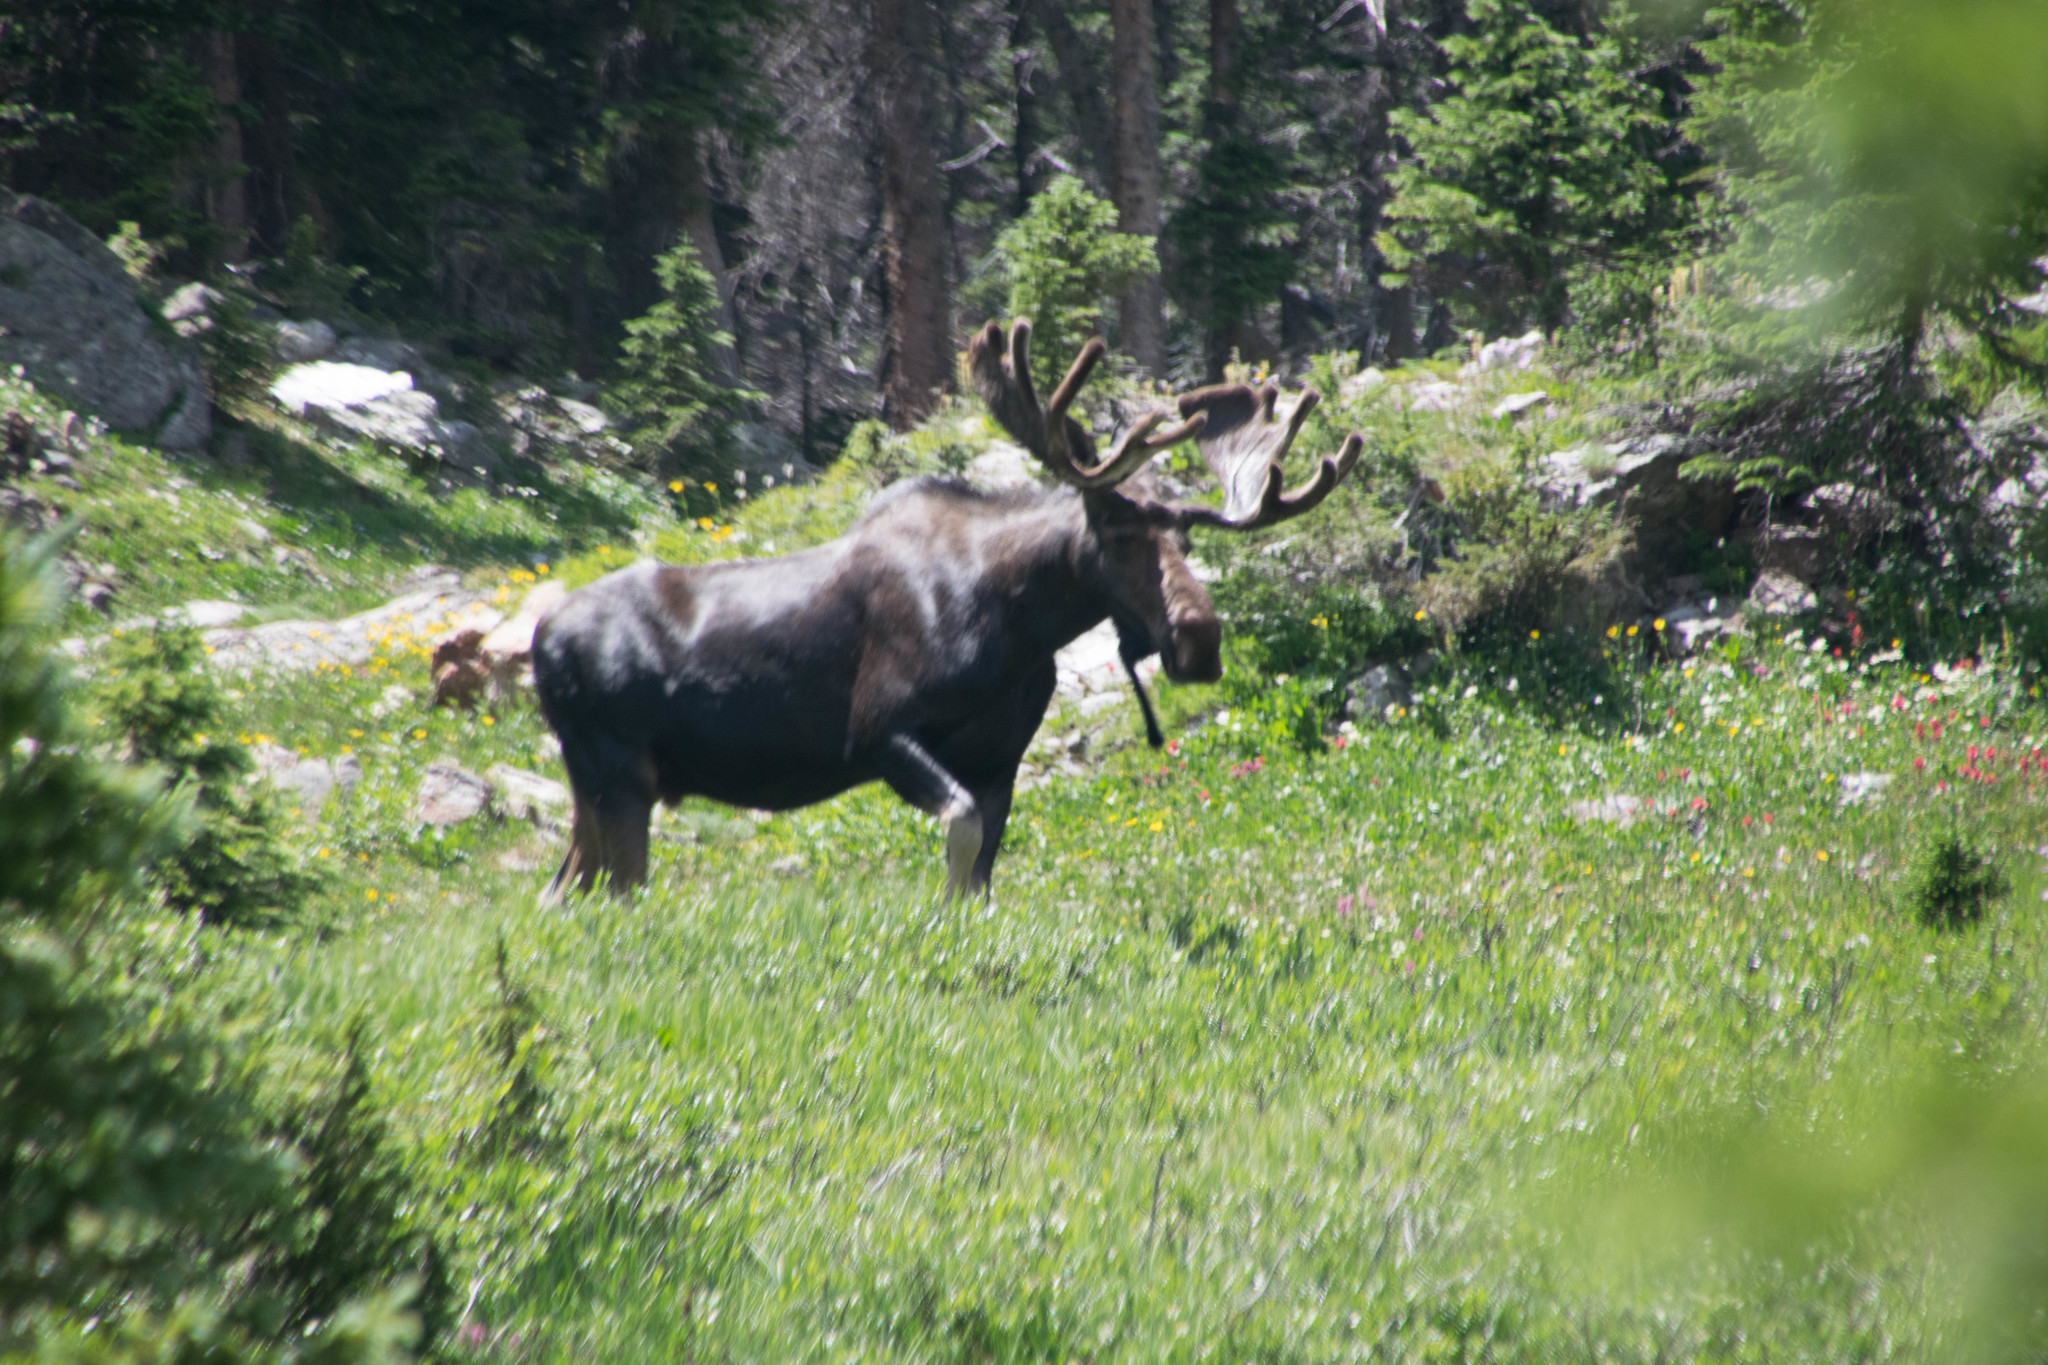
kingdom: Animalia
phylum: Chordata
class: Mammalia
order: Artiodactyla
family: Cervidae
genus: Alces
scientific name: Alces alces
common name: Moose
